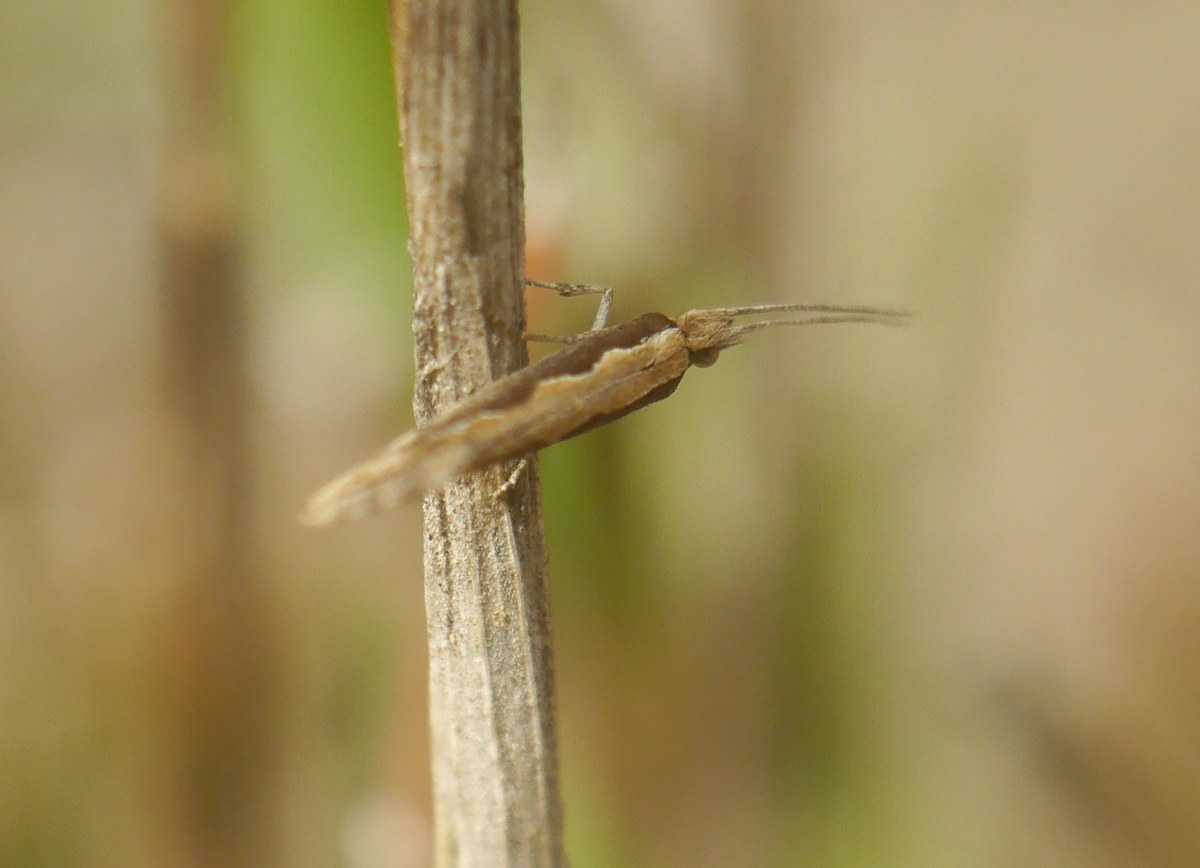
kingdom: Animalia
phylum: Arthropoda
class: Insecta
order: Lepidoptera
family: Plutellidae
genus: Plutella
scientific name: Plutella xylostella
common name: Diamond-back moth
